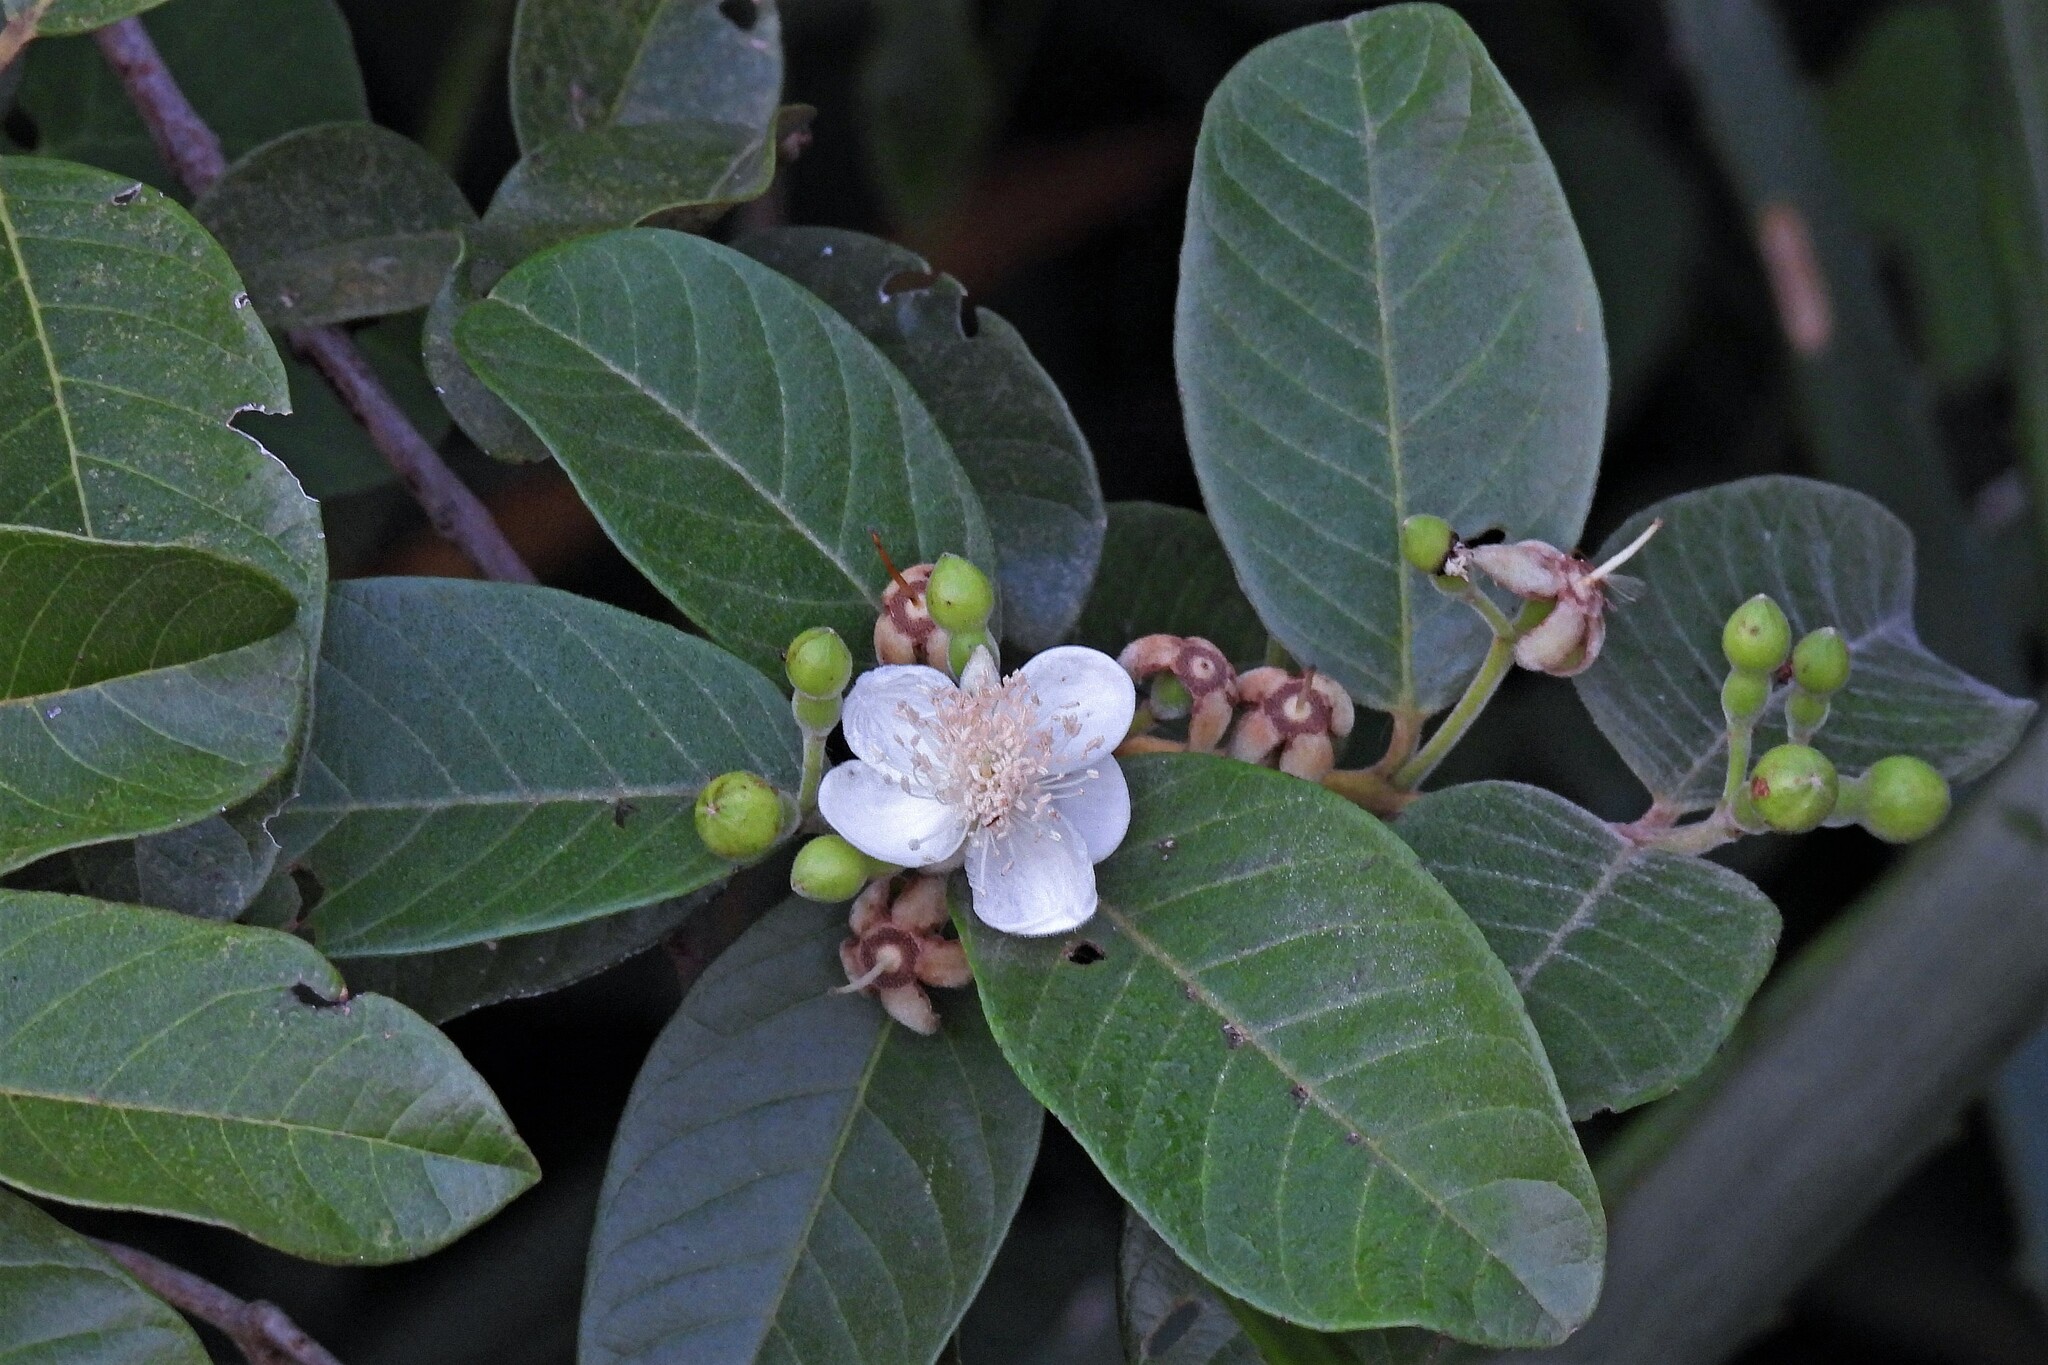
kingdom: Plantae
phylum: Tracheophyta
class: Magnoliopsida
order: Myrtales
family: Myrtaceae
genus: Psidium
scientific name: Psidium guineense
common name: Brazilian guava
